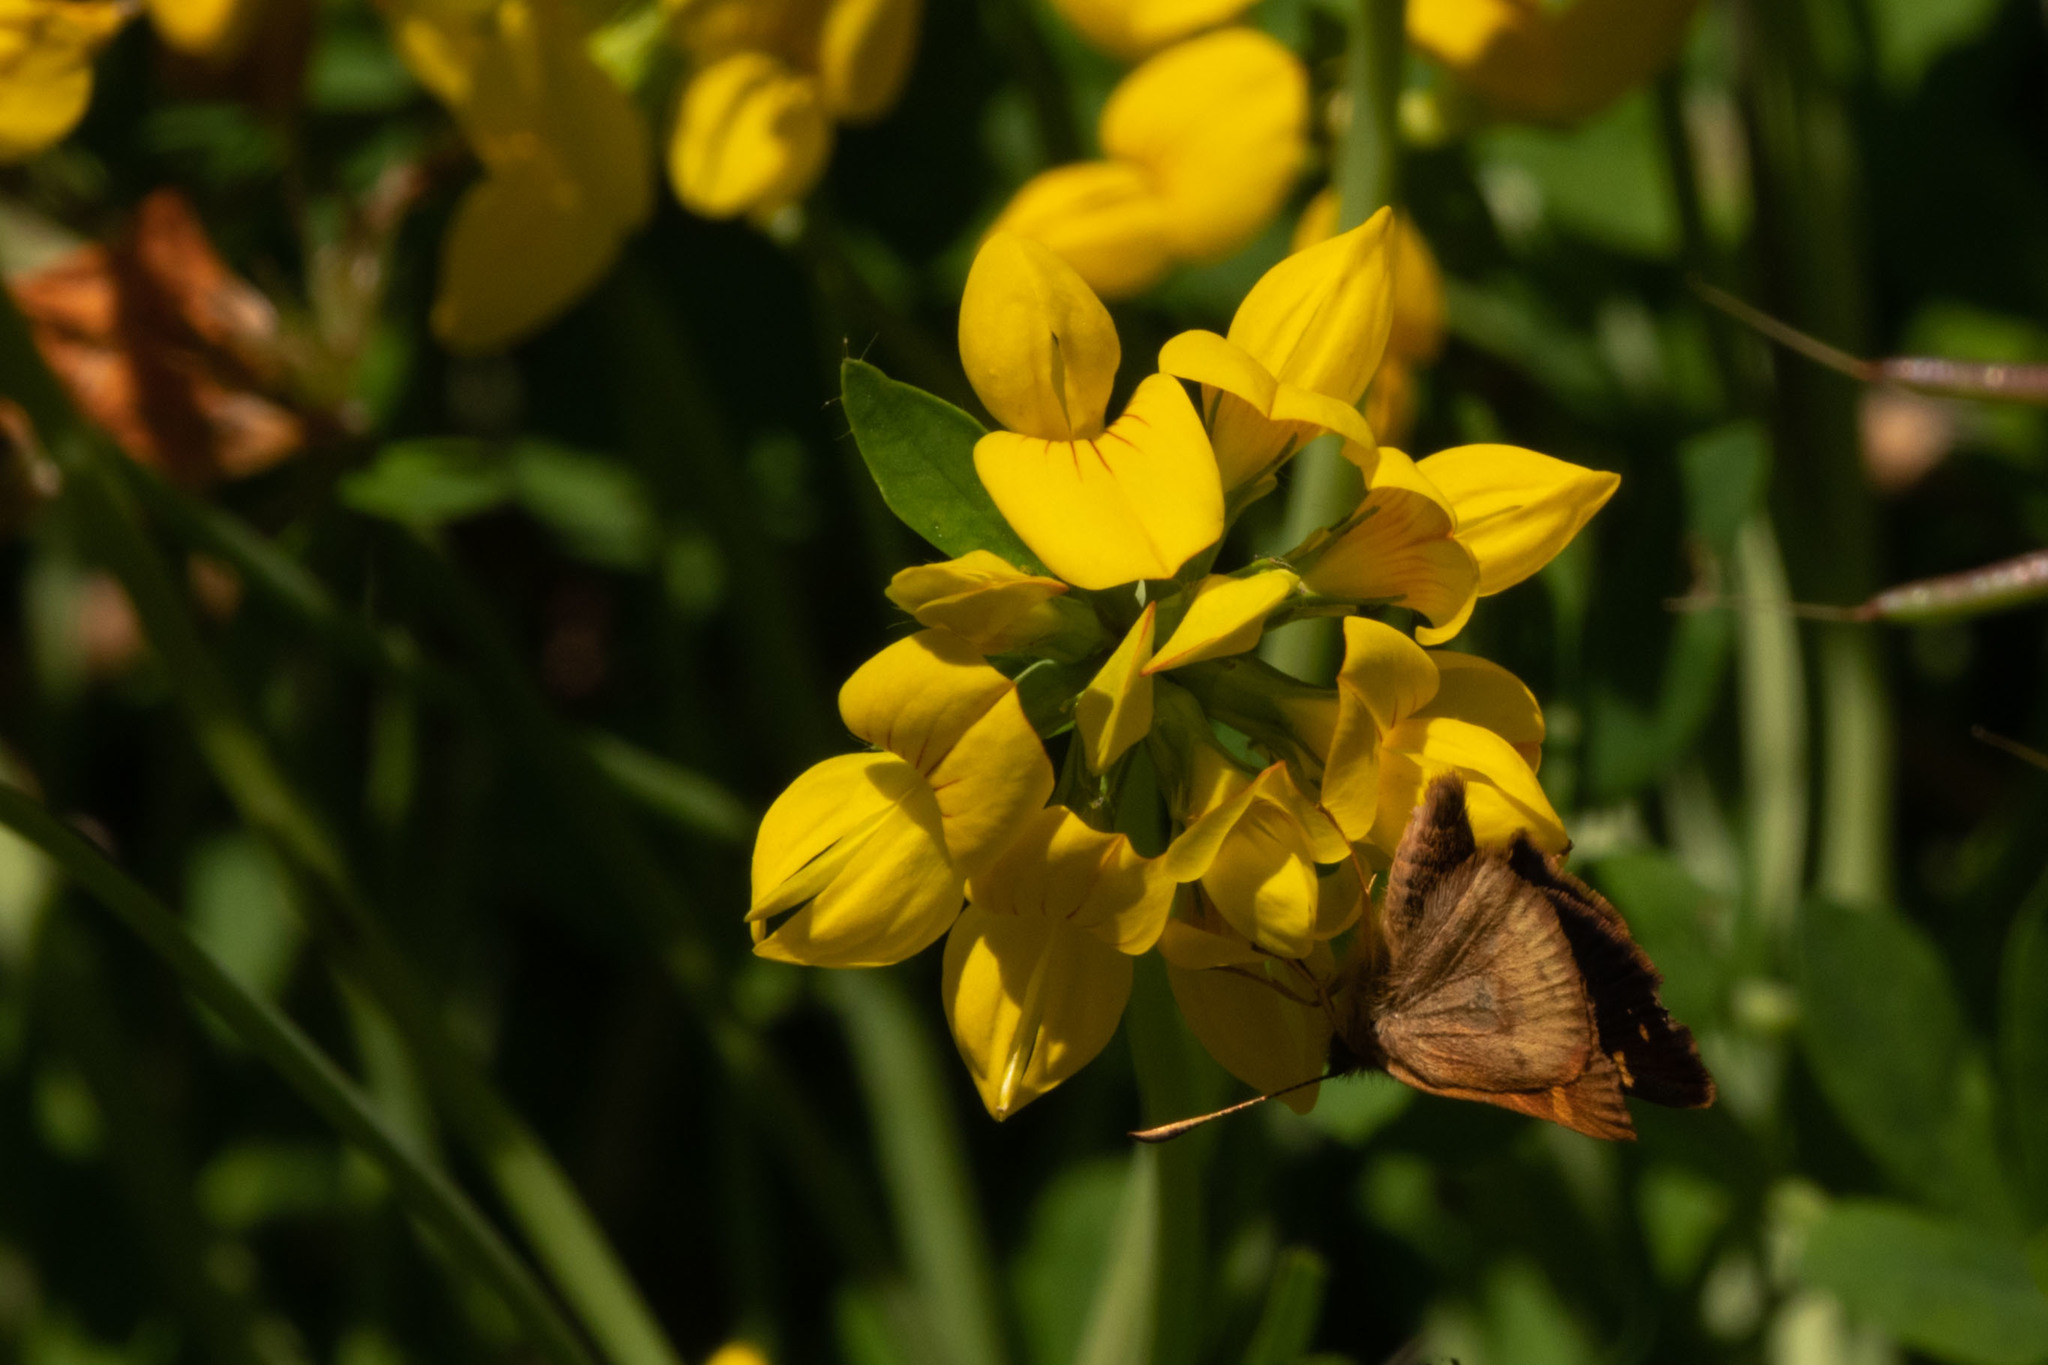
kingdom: Animalia
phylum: Arthropoda
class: Insecta
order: Lepidoptera
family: Hesperiidae
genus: Butleria
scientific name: Butleria bissexguttatus
